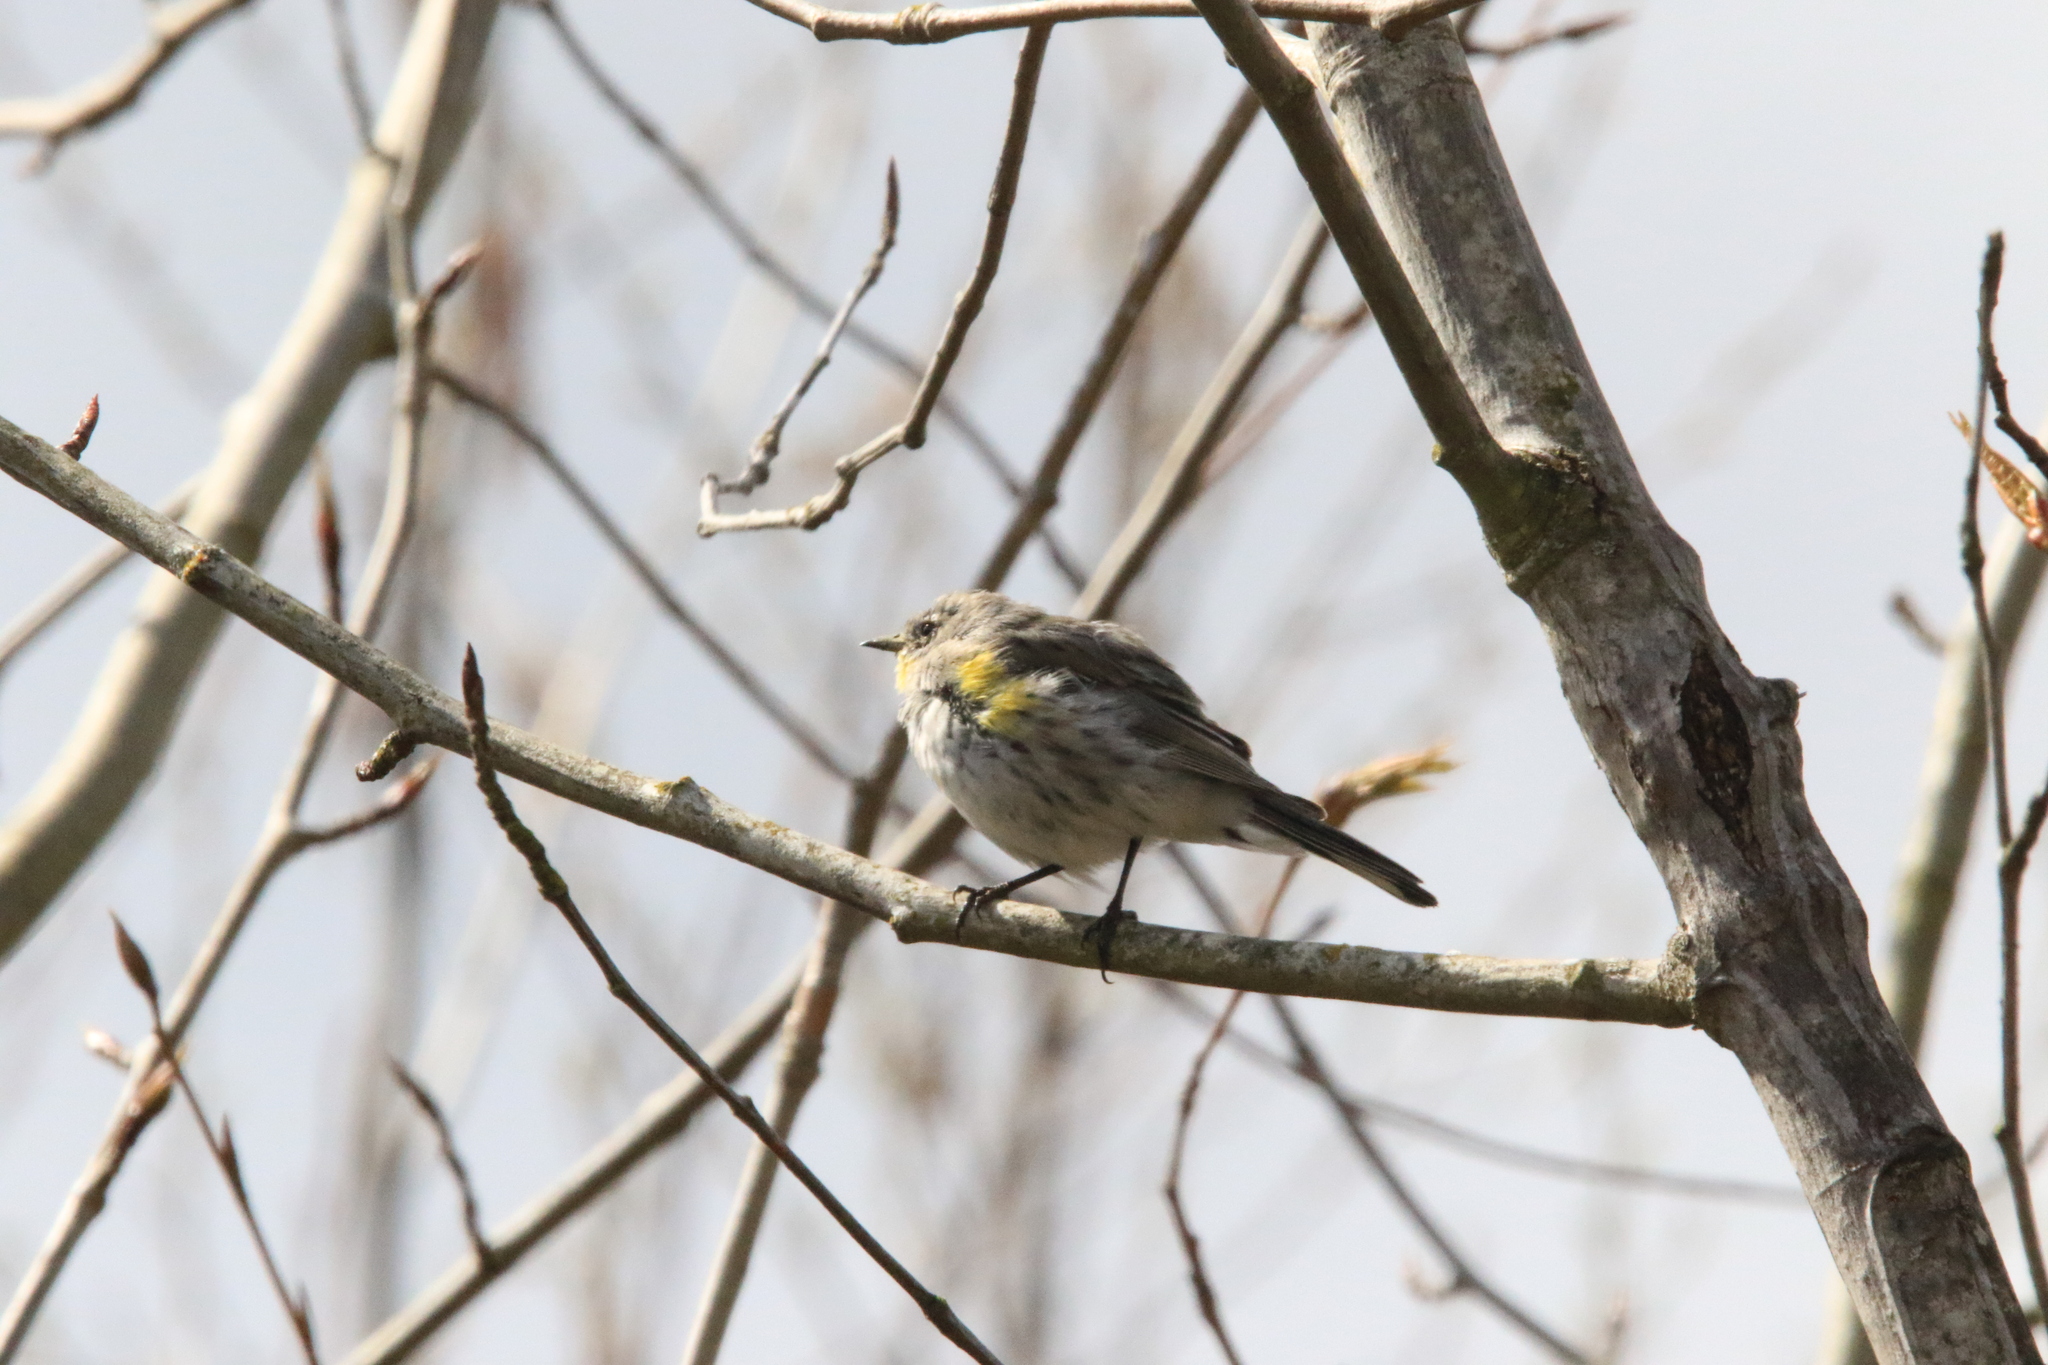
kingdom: Animalia
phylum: Chordata
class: Aves
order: Passeriformes
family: Parulidae
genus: Setophaga
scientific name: Setophaga coronata
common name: Myrtle warbler
